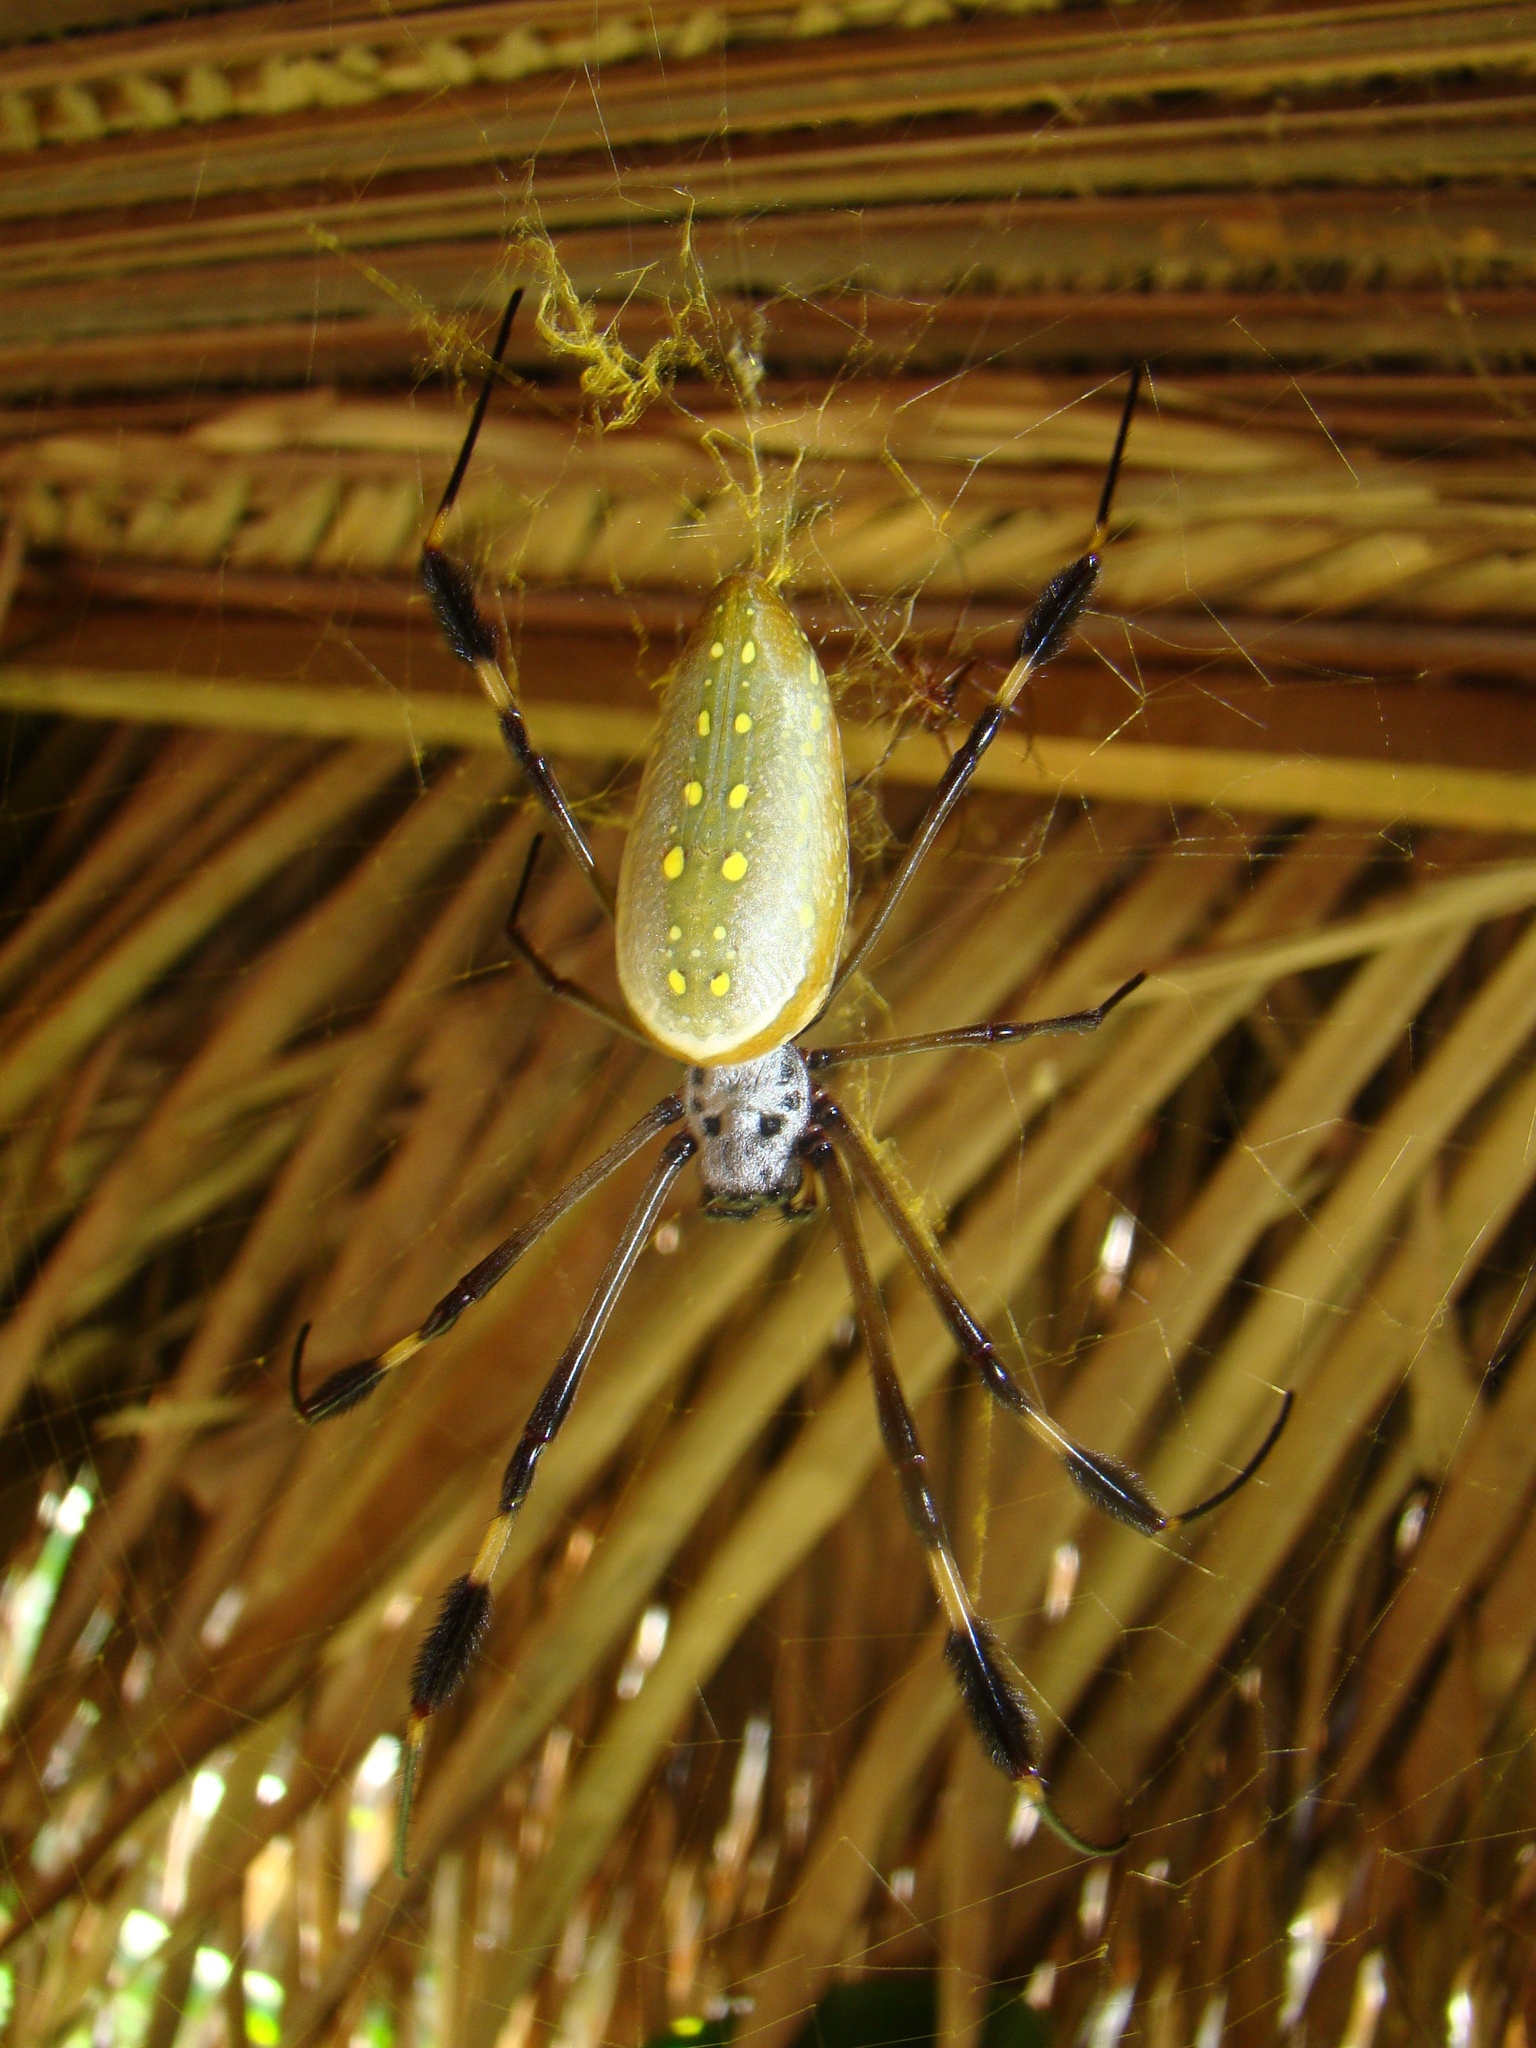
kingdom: Animalia
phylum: Arthropoda
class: Arachnida
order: Araneae
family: Araneidae
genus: Trichonephila
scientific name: Trichonephila clavipes
